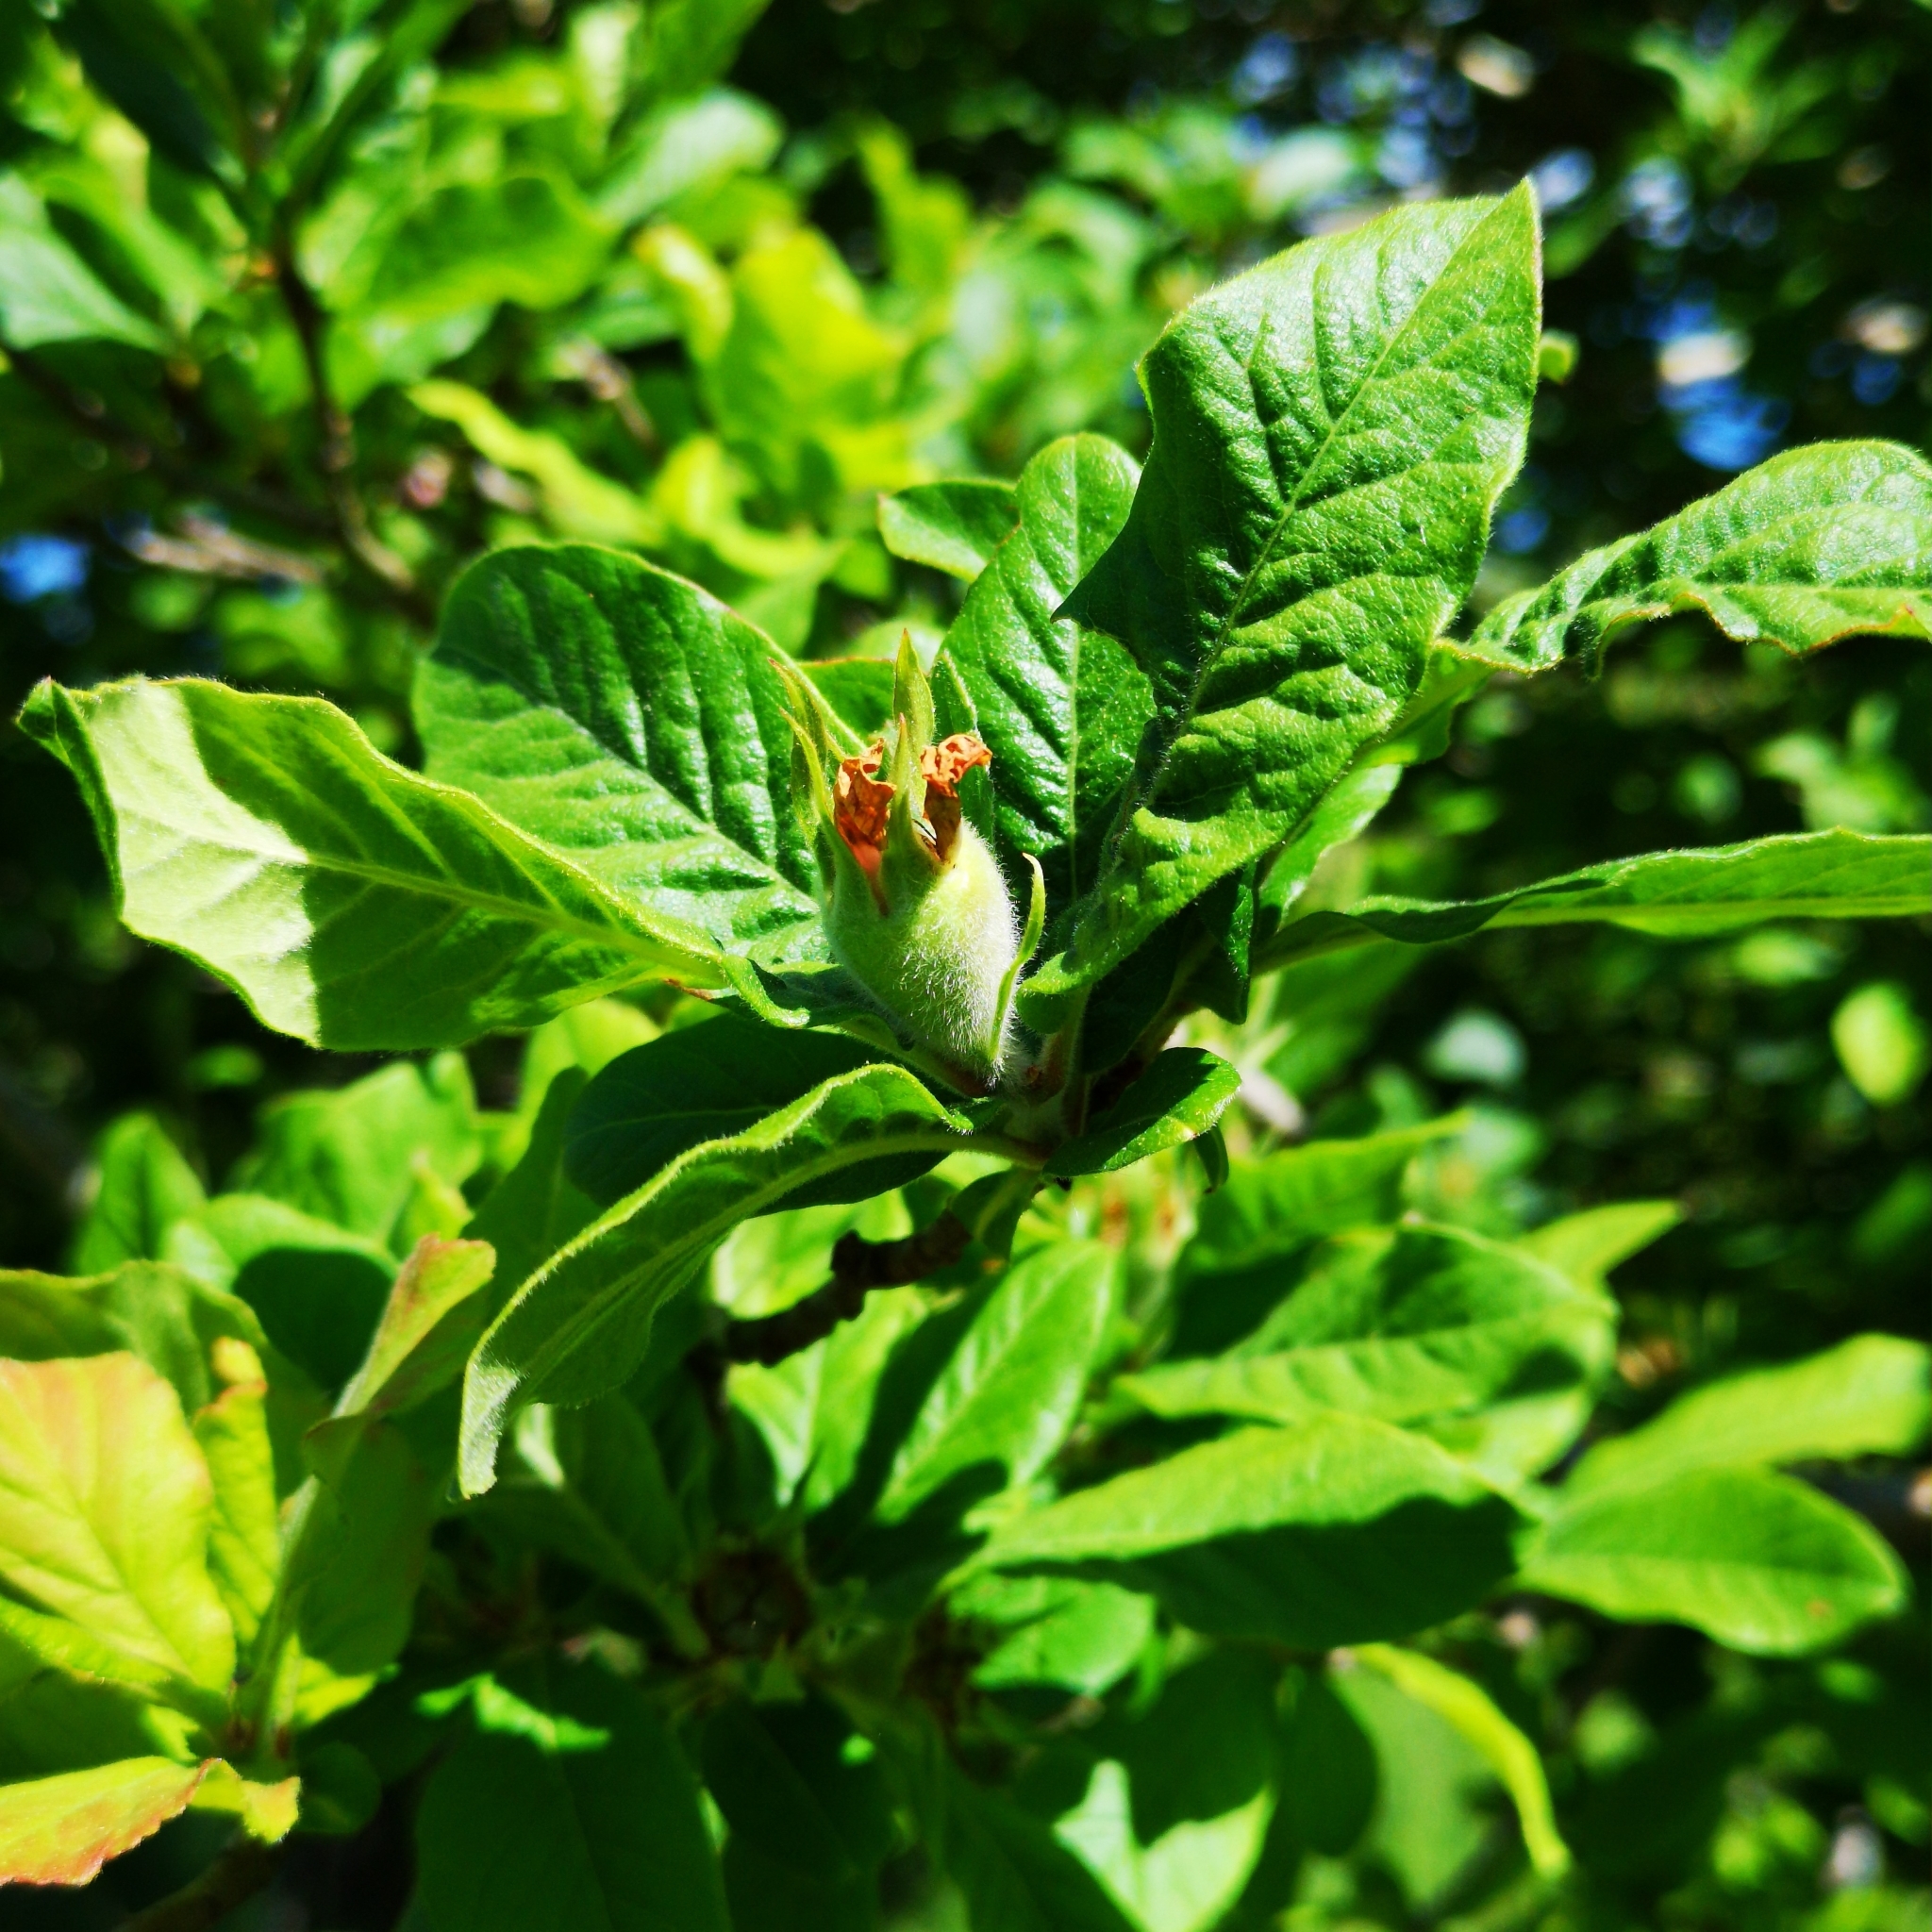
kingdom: Plantae
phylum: Tracheophyta
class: Magnoliopsida
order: Rosales
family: Rosaceae
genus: Mespilus
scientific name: Mespilus germanica
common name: Medlar
